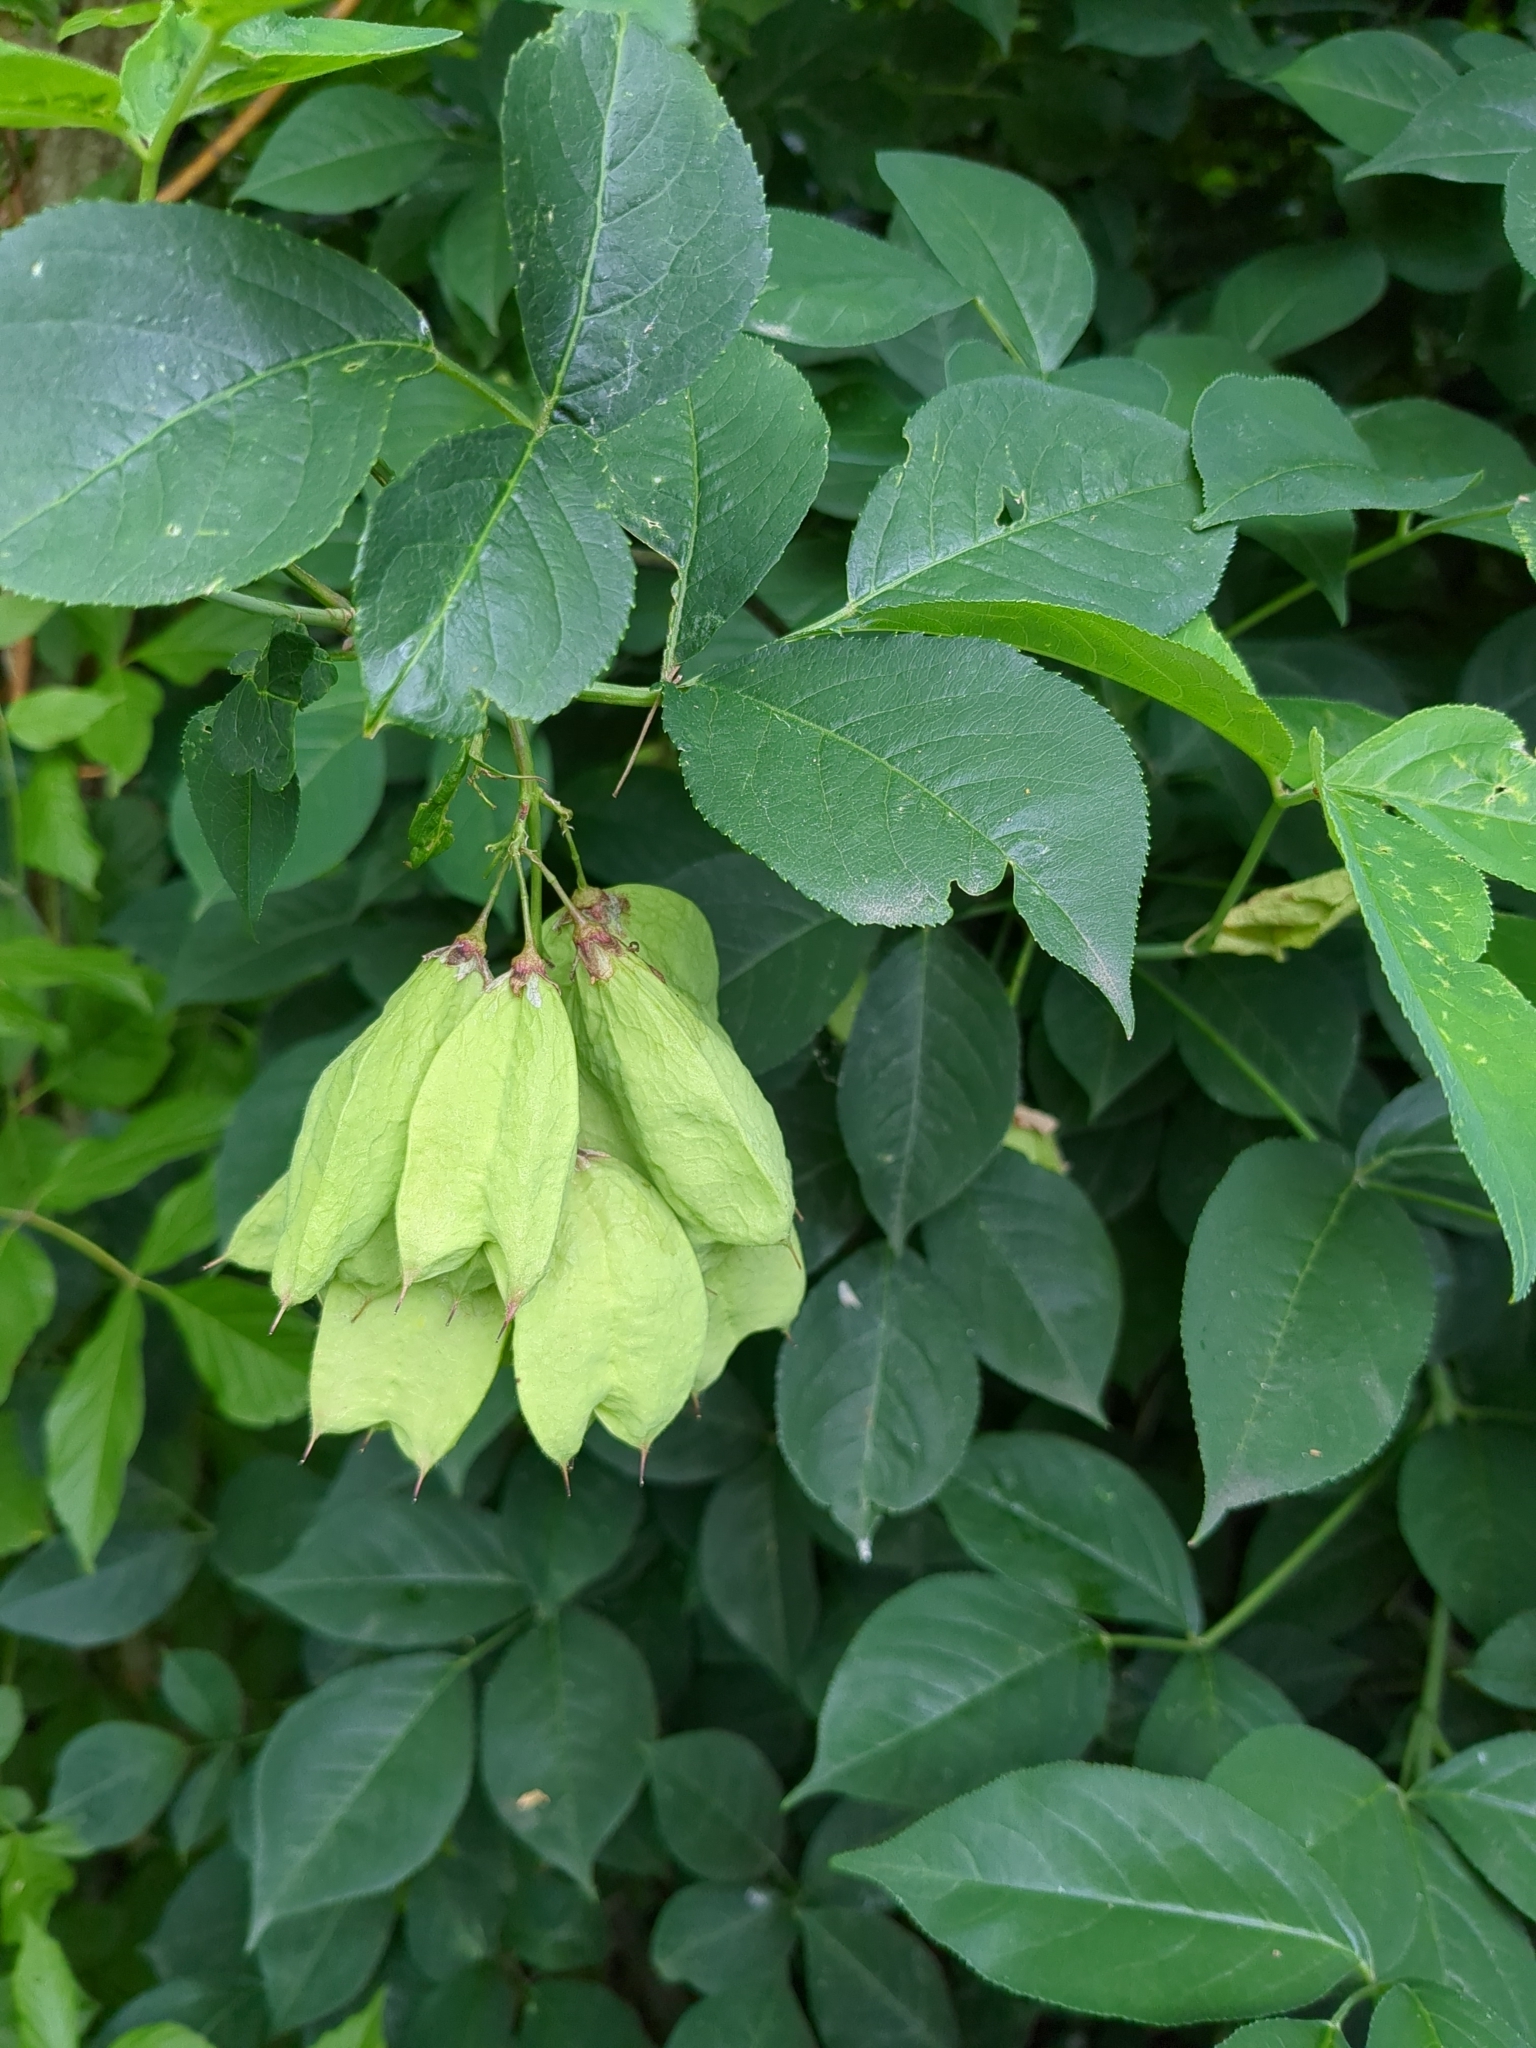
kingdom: Plantae
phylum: Tracheophyta
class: Magnoliopsida
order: Crossosomatales
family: Staphyleaceae
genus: Staphylea
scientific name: Staphylea trifolia
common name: American bladdernut
